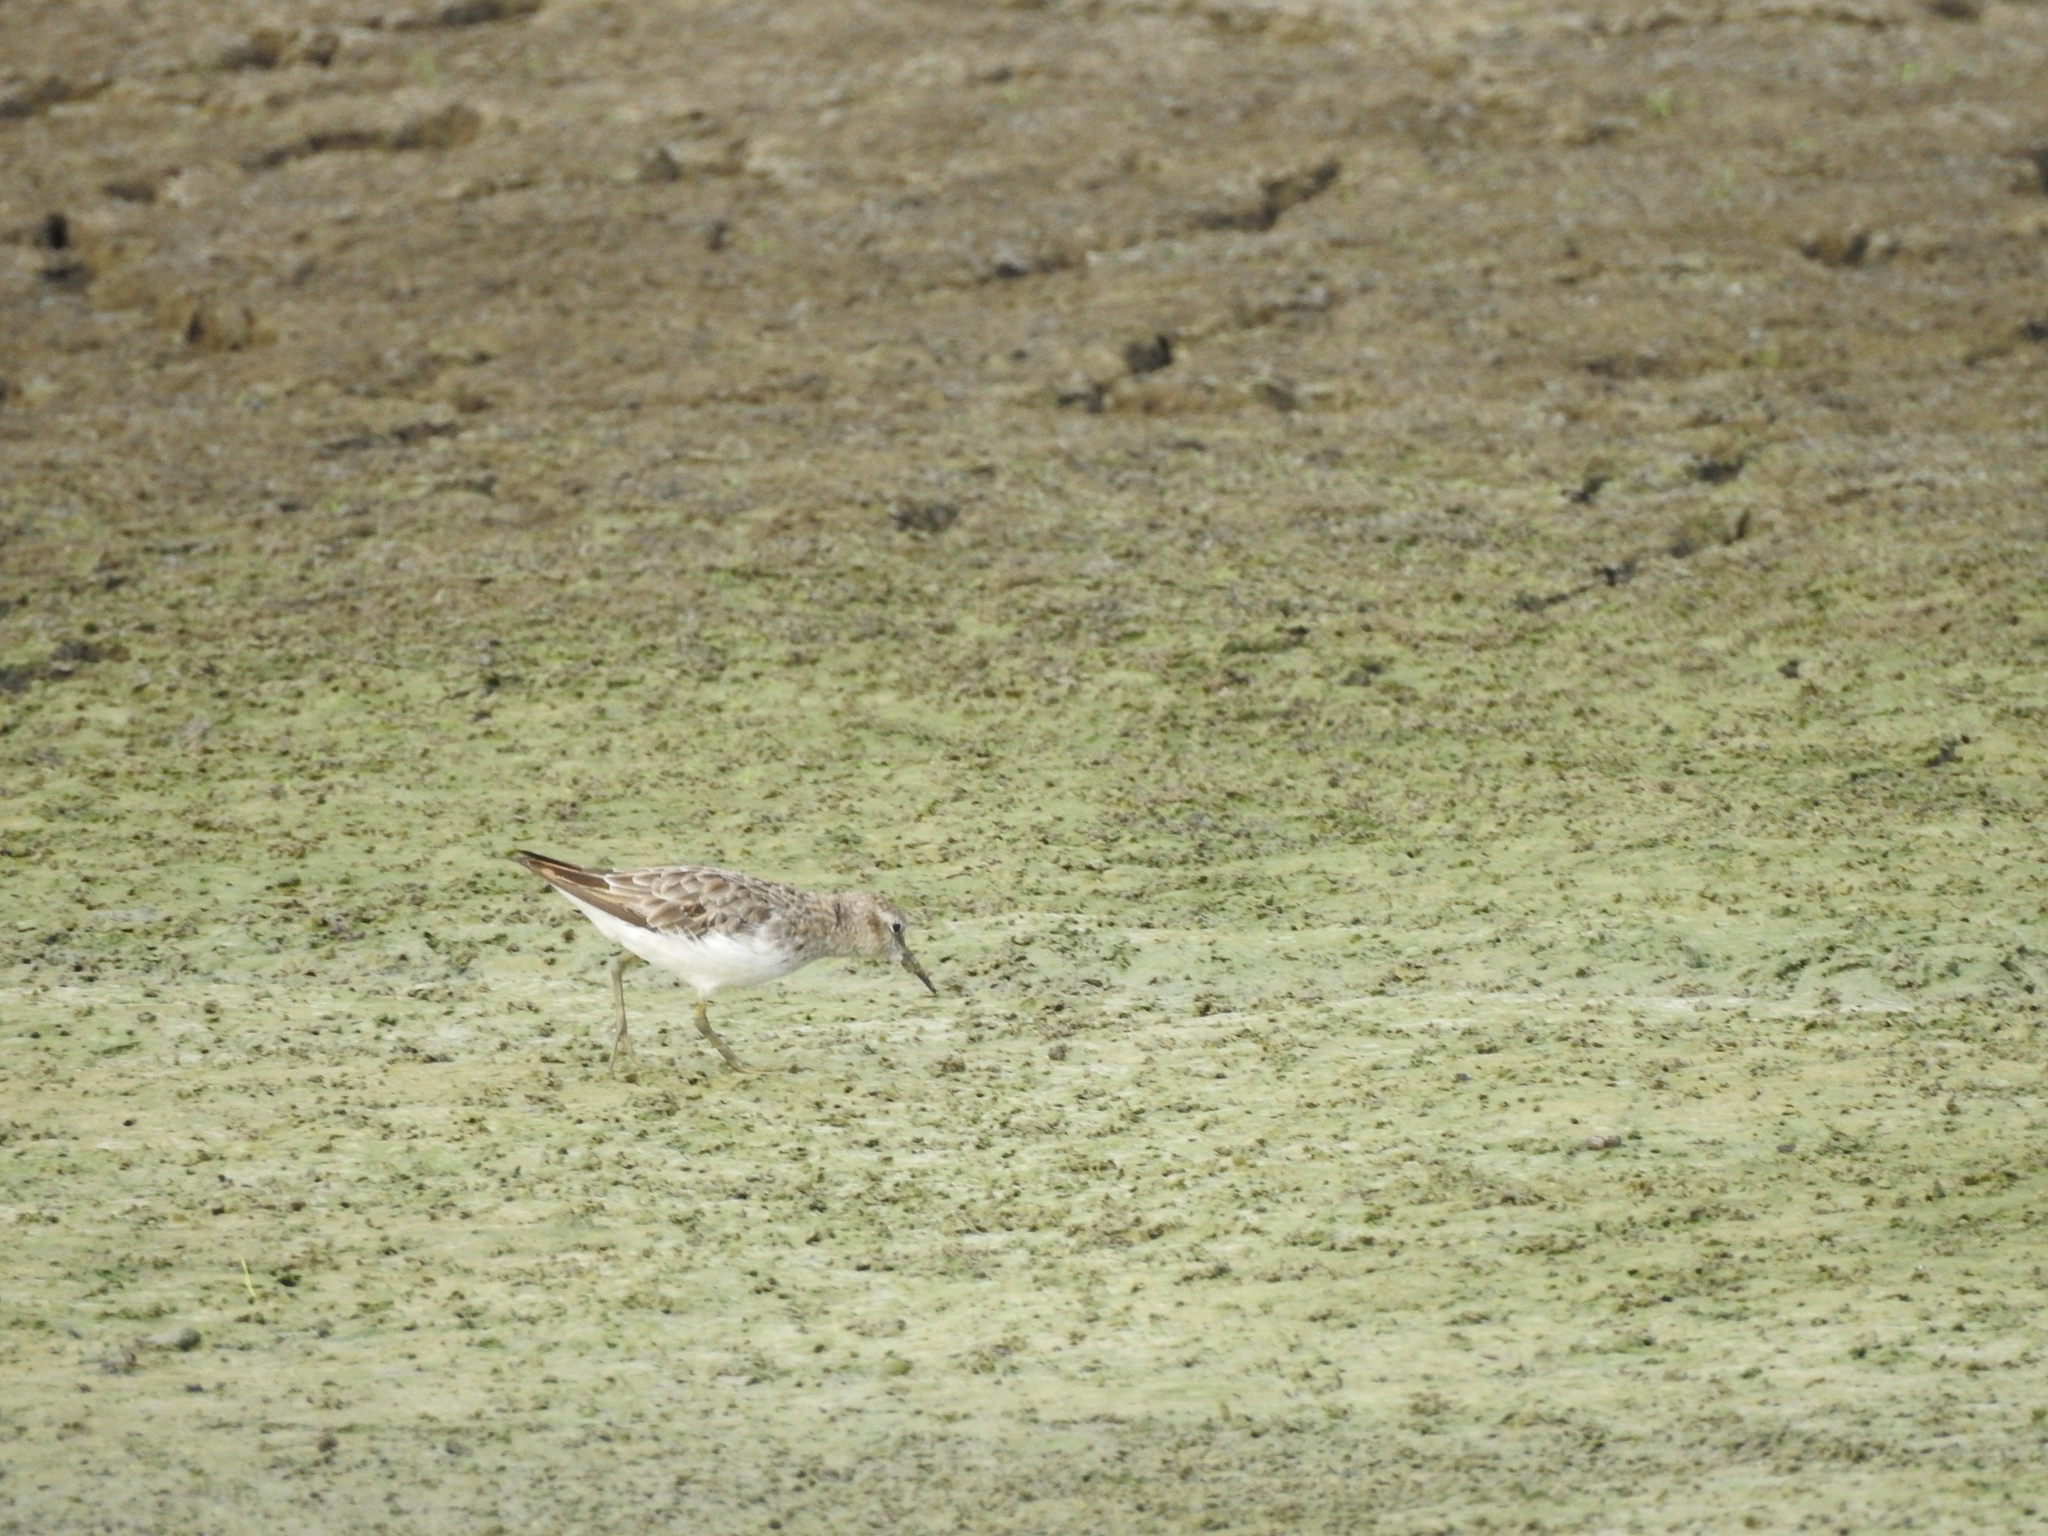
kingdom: Animalia
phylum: Chordata
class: Aves
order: Charadriiformes
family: Scolopacidae
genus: Calidris
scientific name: Calidris minutilla
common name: Least sandpiper
